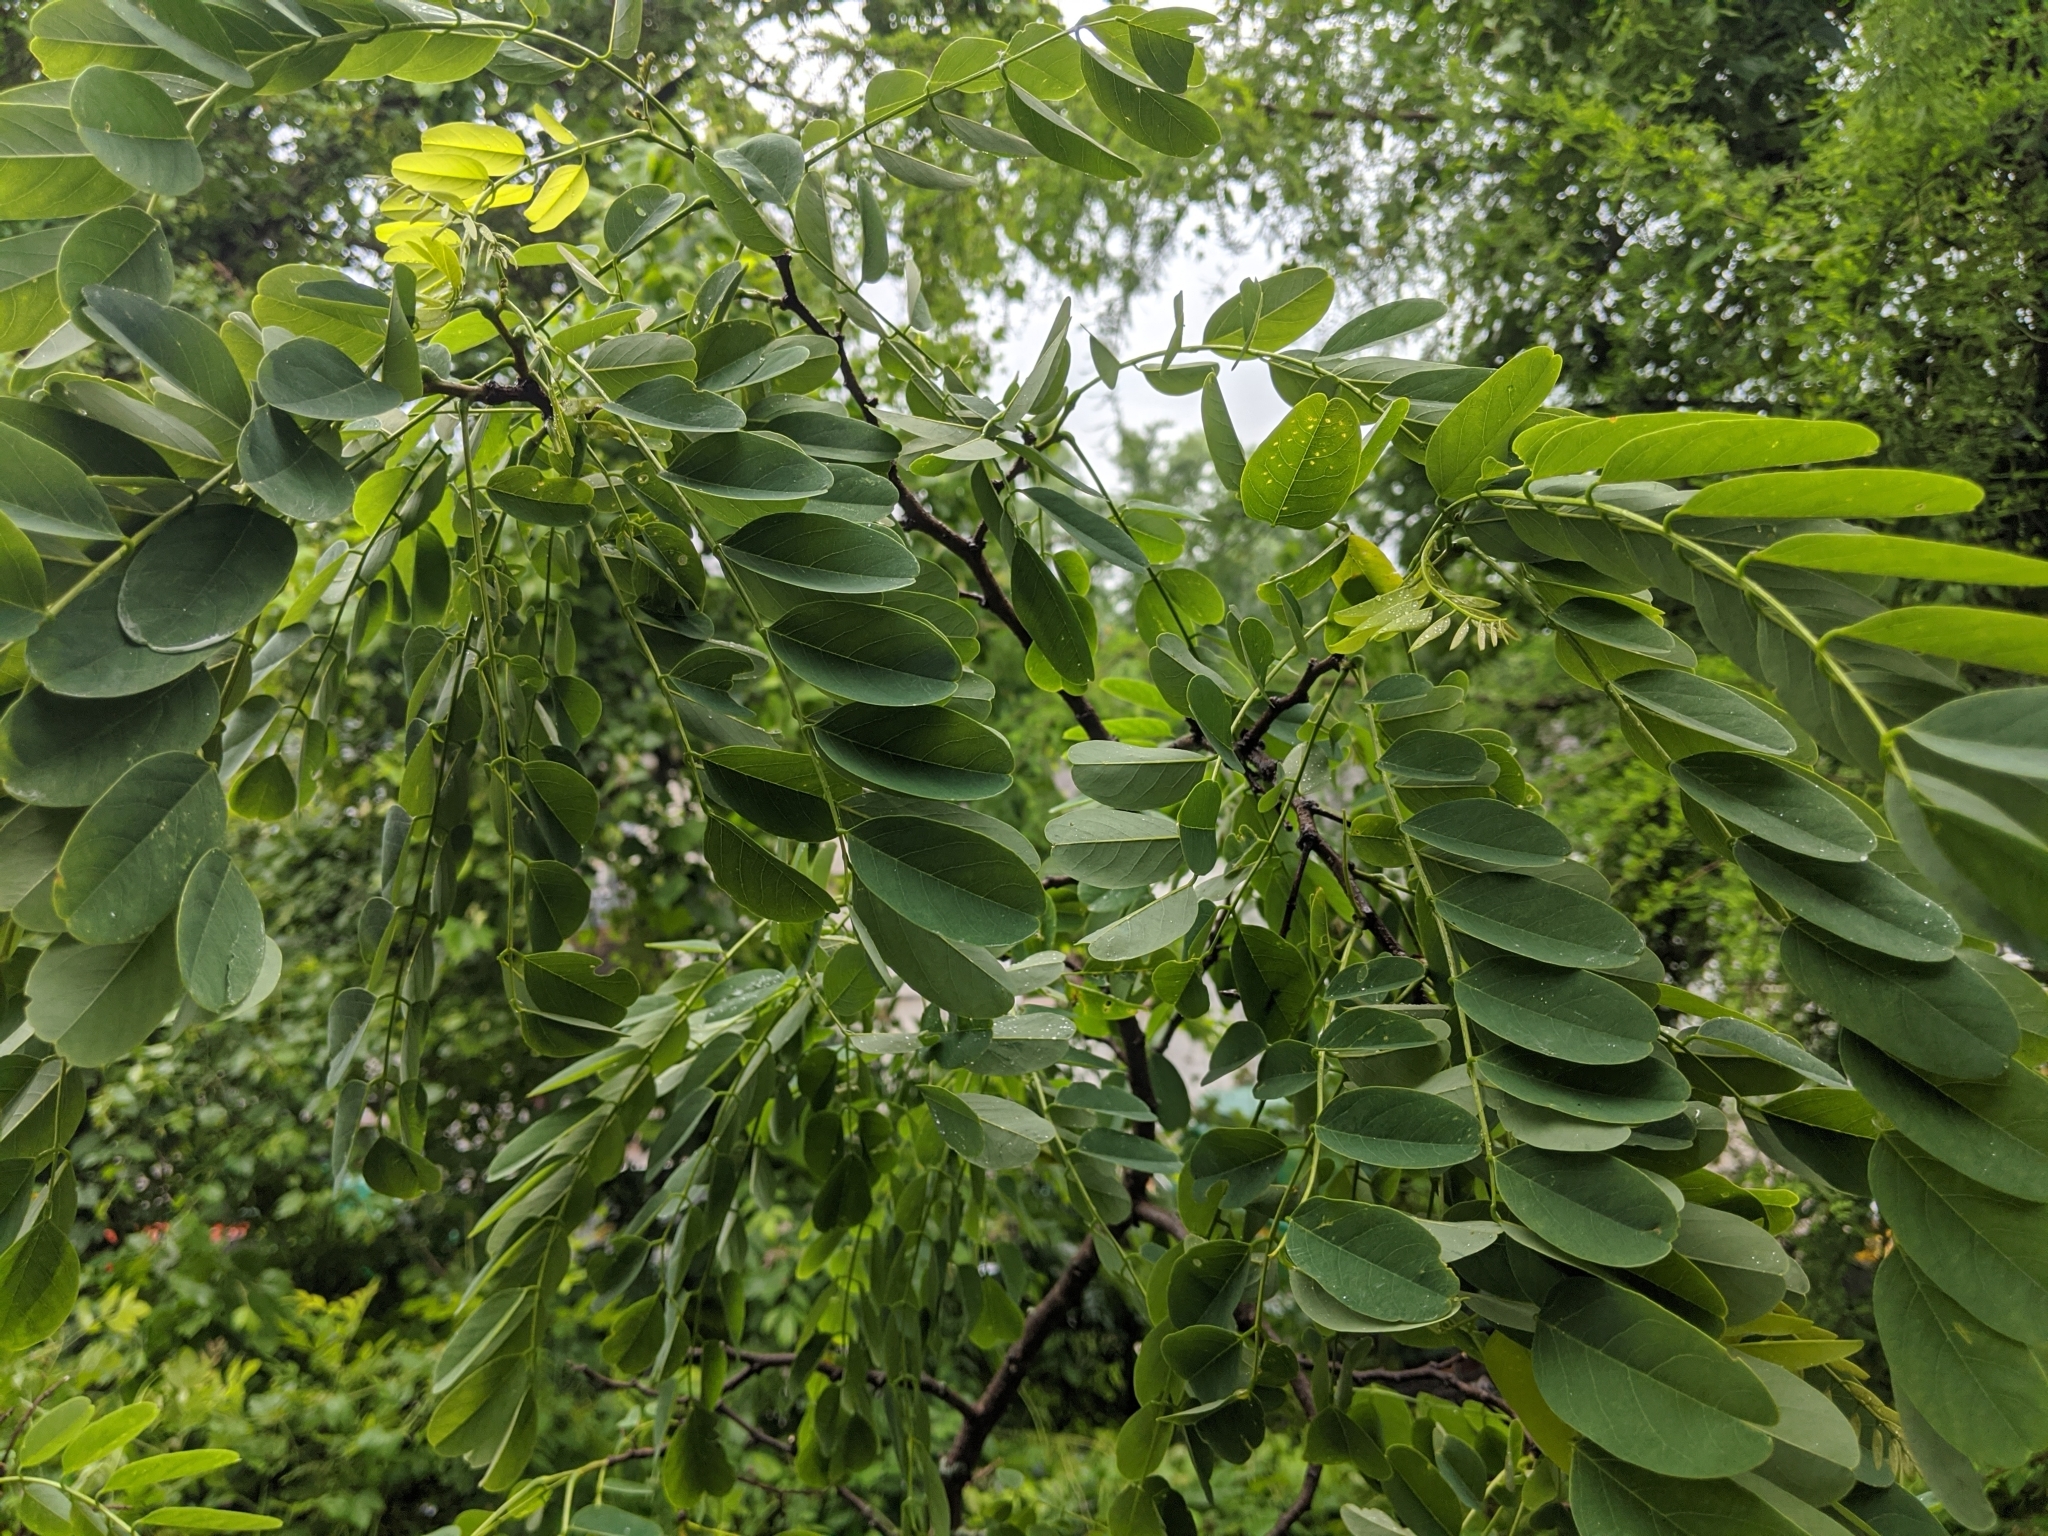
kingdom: Plantae
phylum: Tracheophyta
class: Magnoliopsida
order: Fabales
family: Fabaceae
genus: Robinia
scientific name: Robinia pseudoacacia
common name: Black locust
